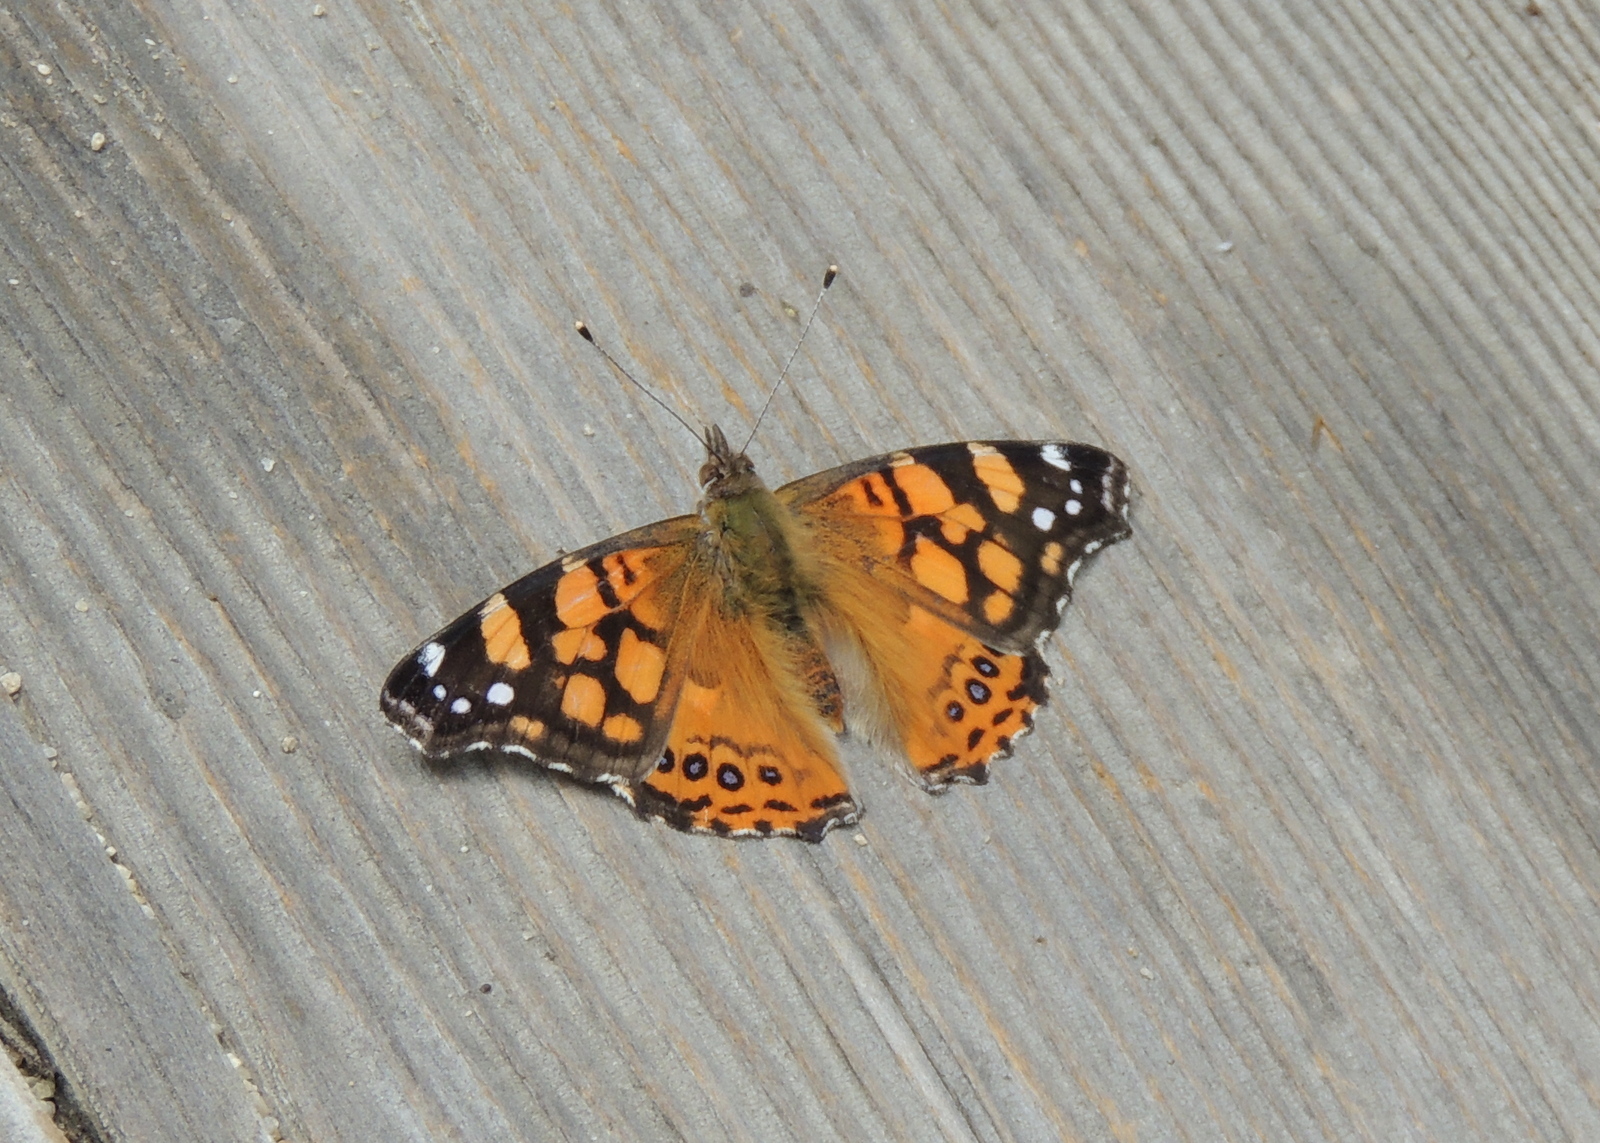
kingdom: Animalia
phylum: Arthropoda
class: Insecta
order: Lepidoptera
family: Nymphalidae
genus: Vanessa
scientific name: Vanessa annabella
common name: West coast lady
